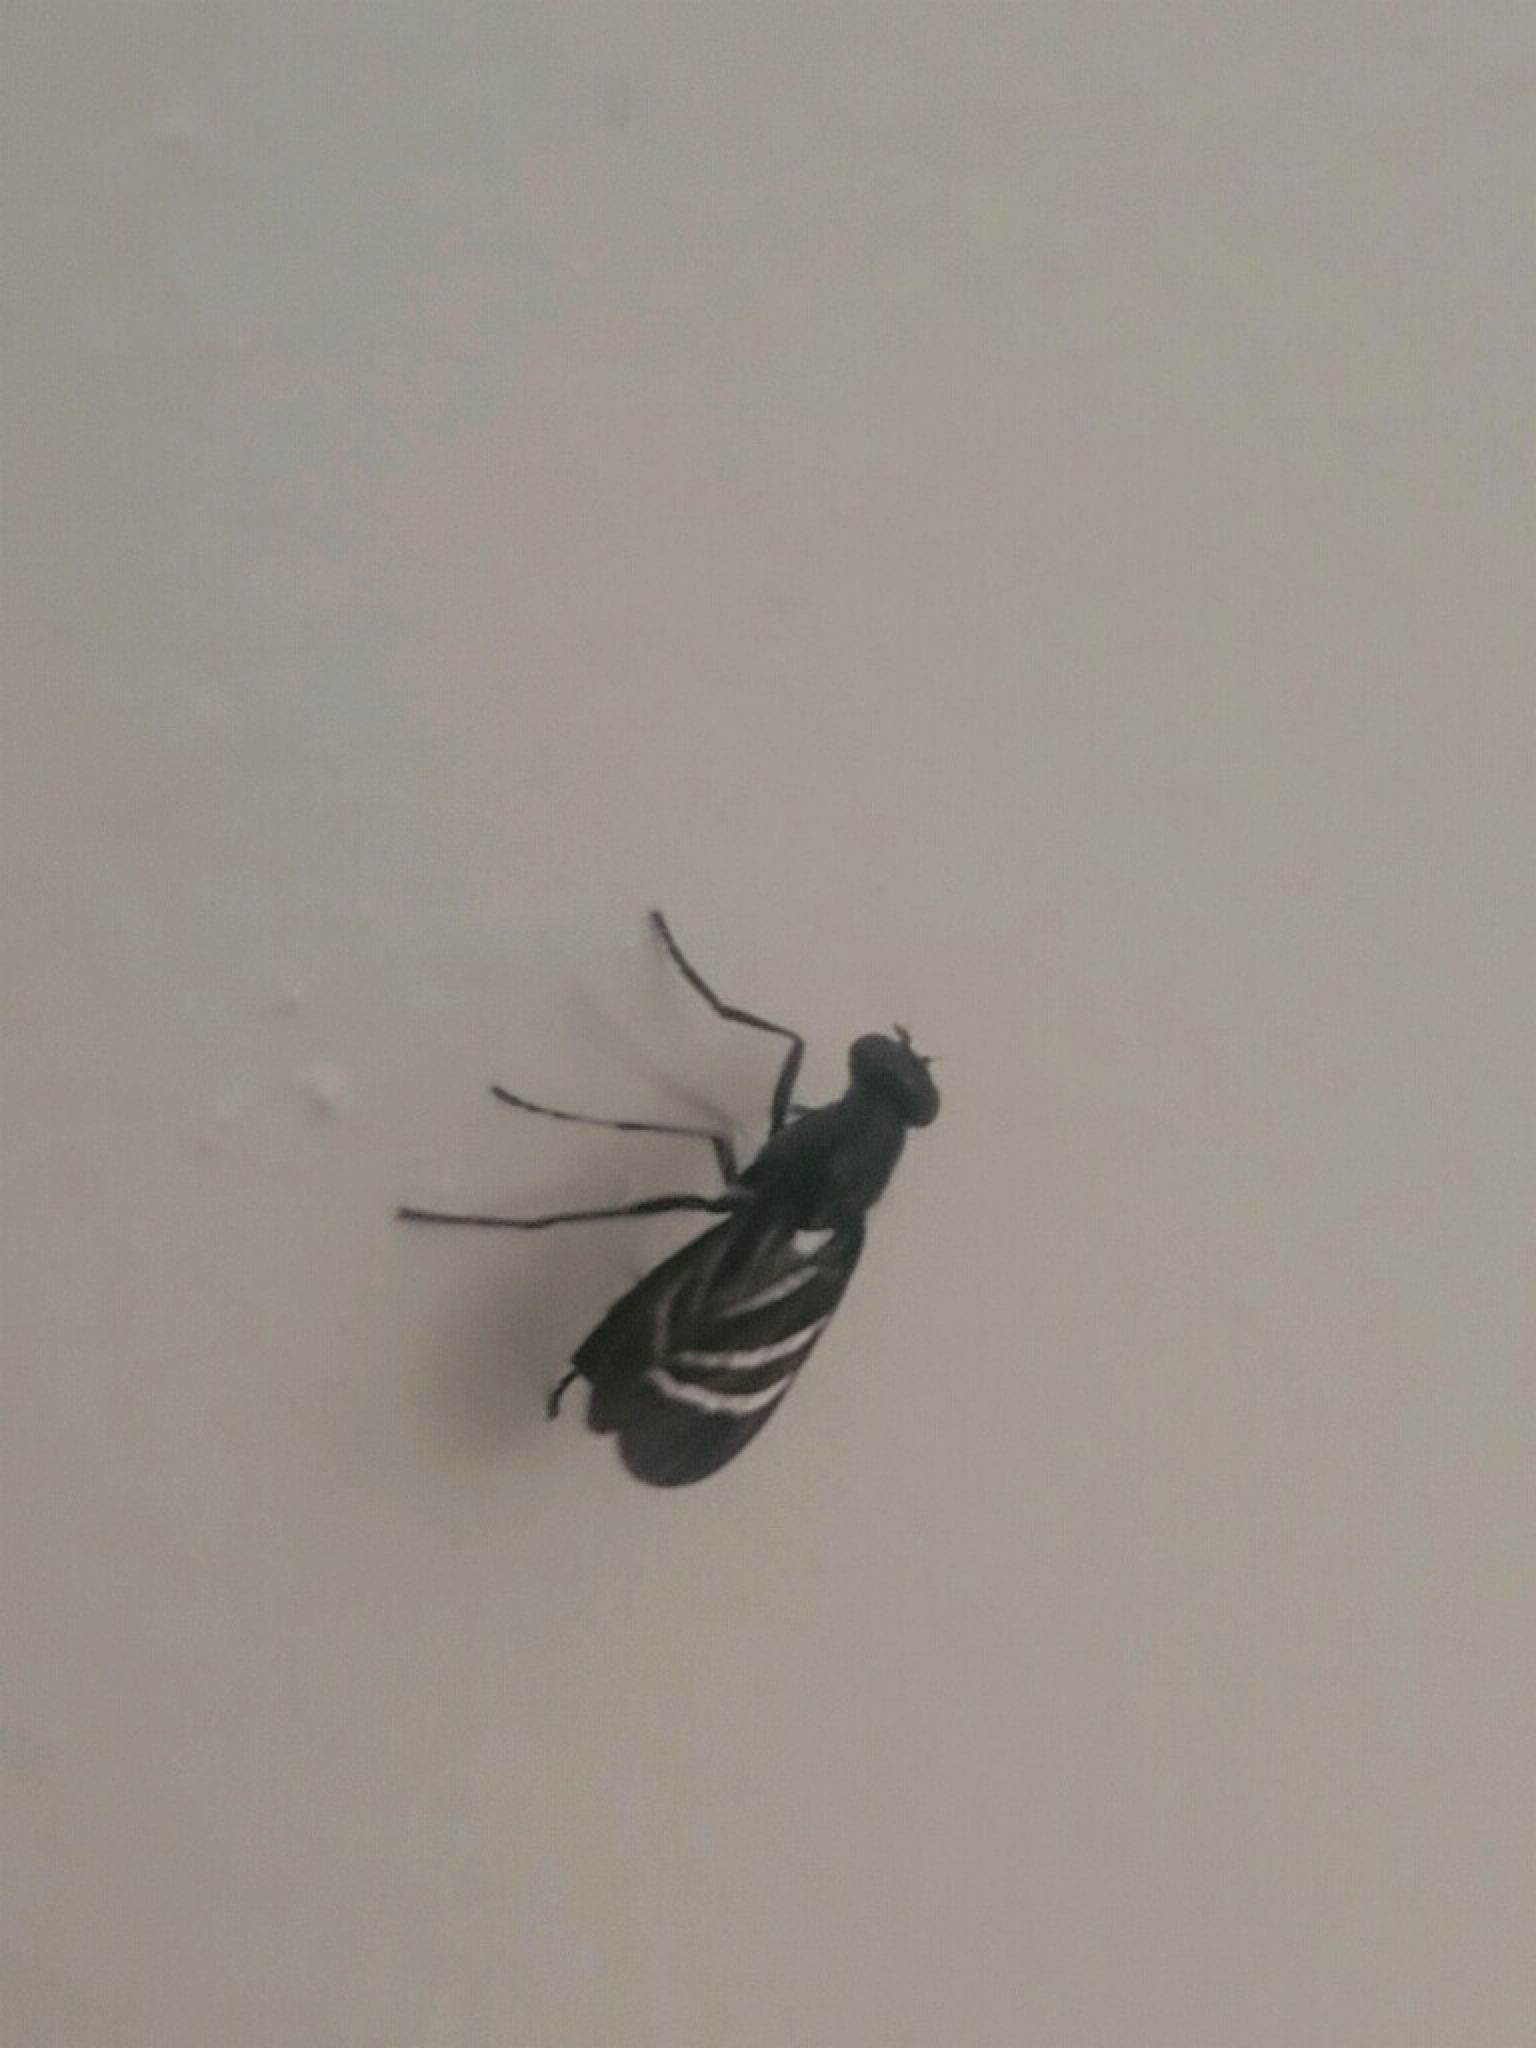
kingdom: Animalia
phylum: Arthropoda
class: Insecta
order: Diptera
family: Ulidiidae
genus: Tritoxa
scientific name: Tritoxa flexa
